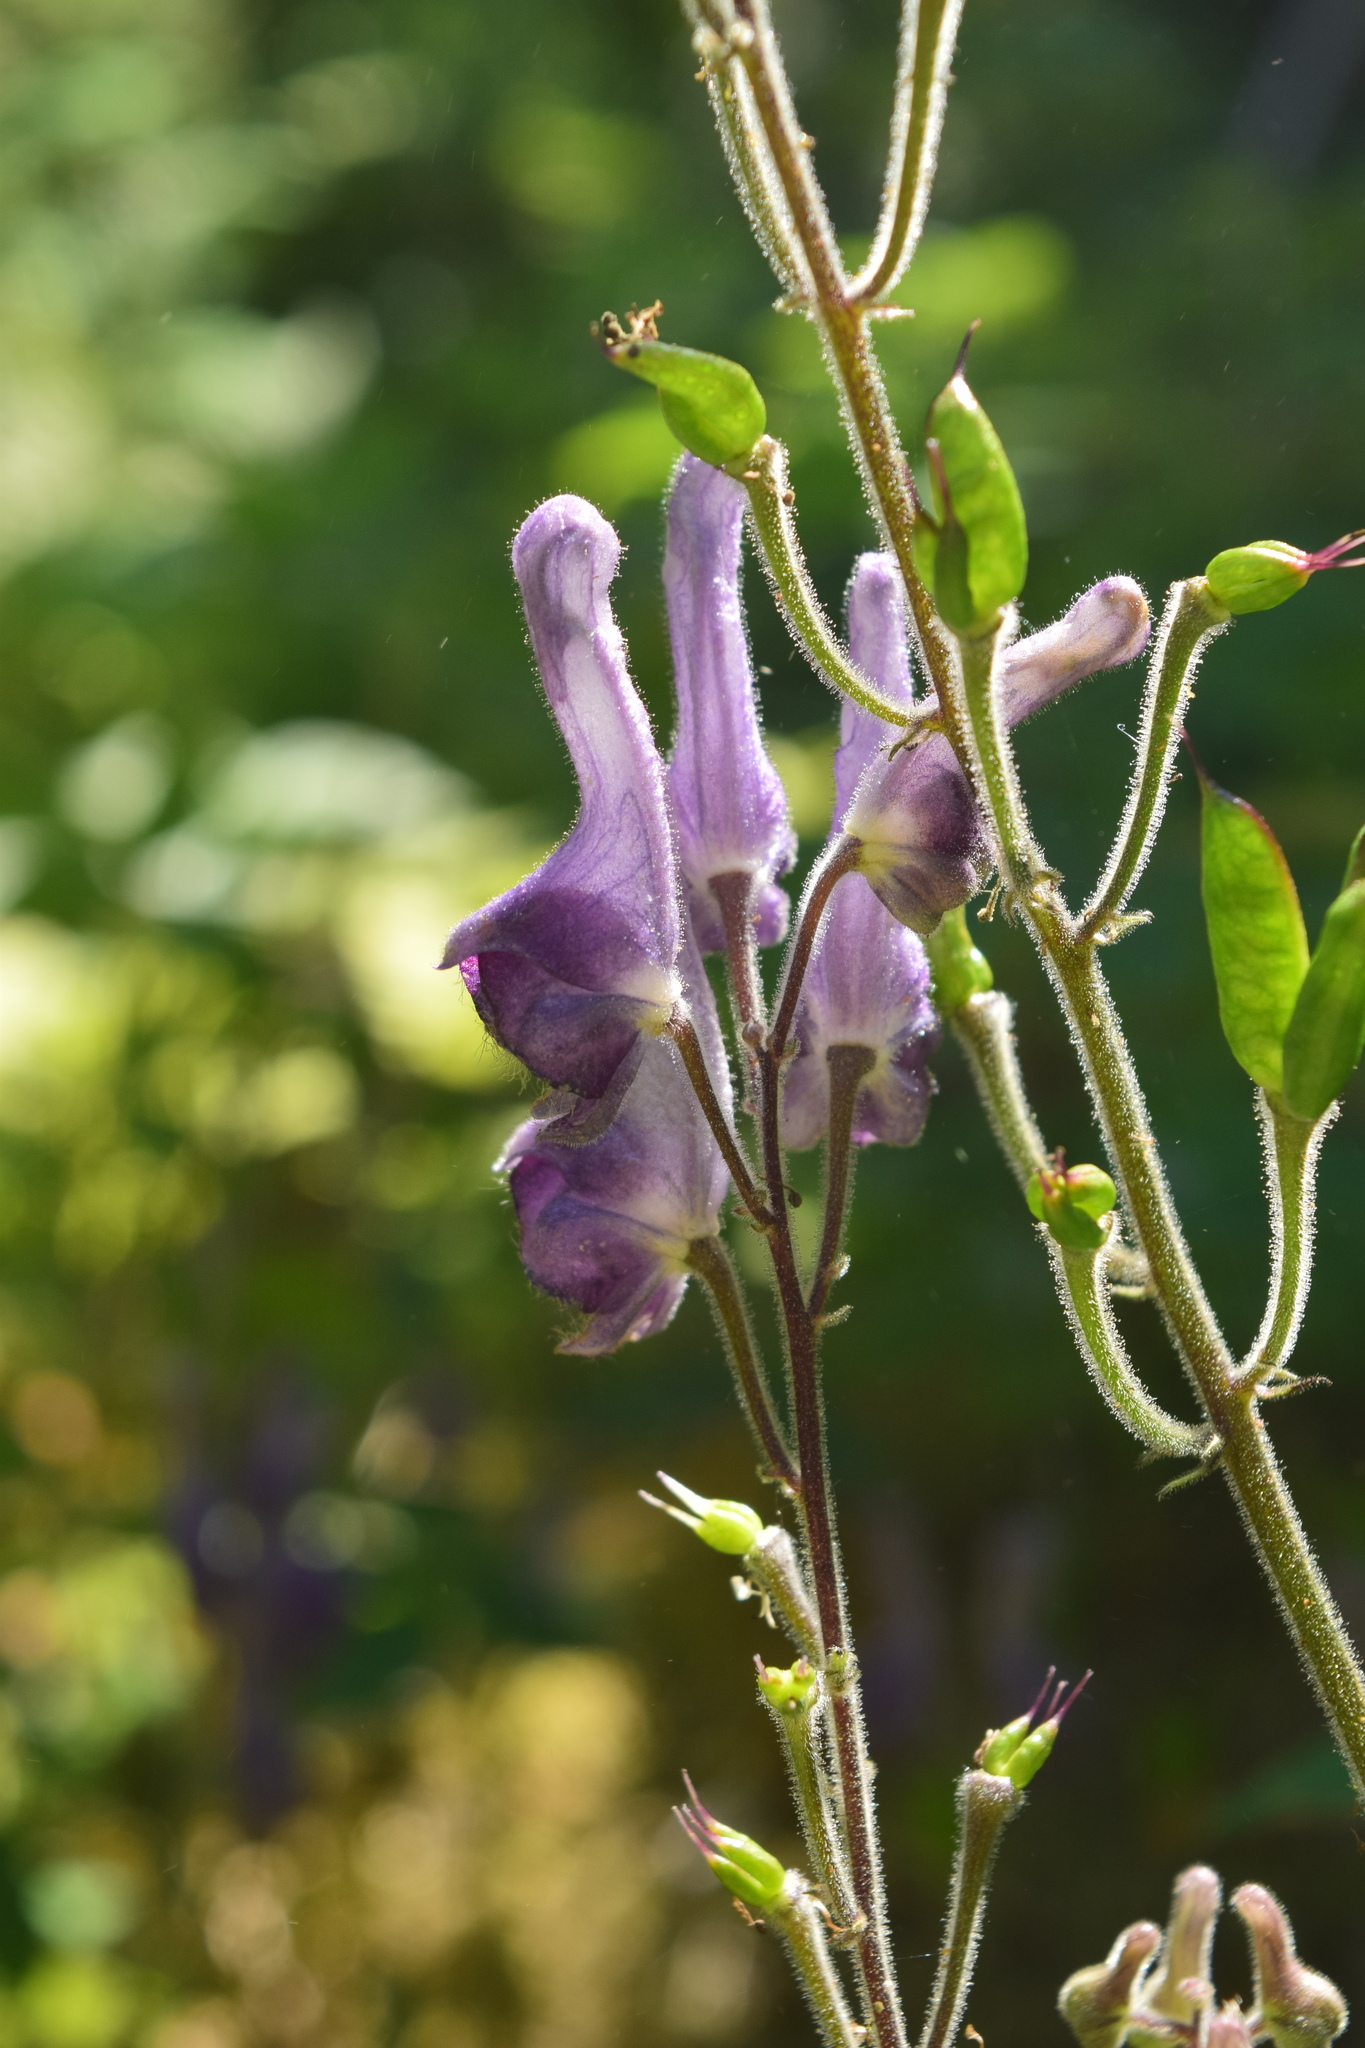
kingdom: Plantae
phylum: Tracheophyta
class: Magnoliopsida
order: Ranunculales
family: Ranunculaceae
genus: Aconitum
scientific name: Aconitum septentrionale
